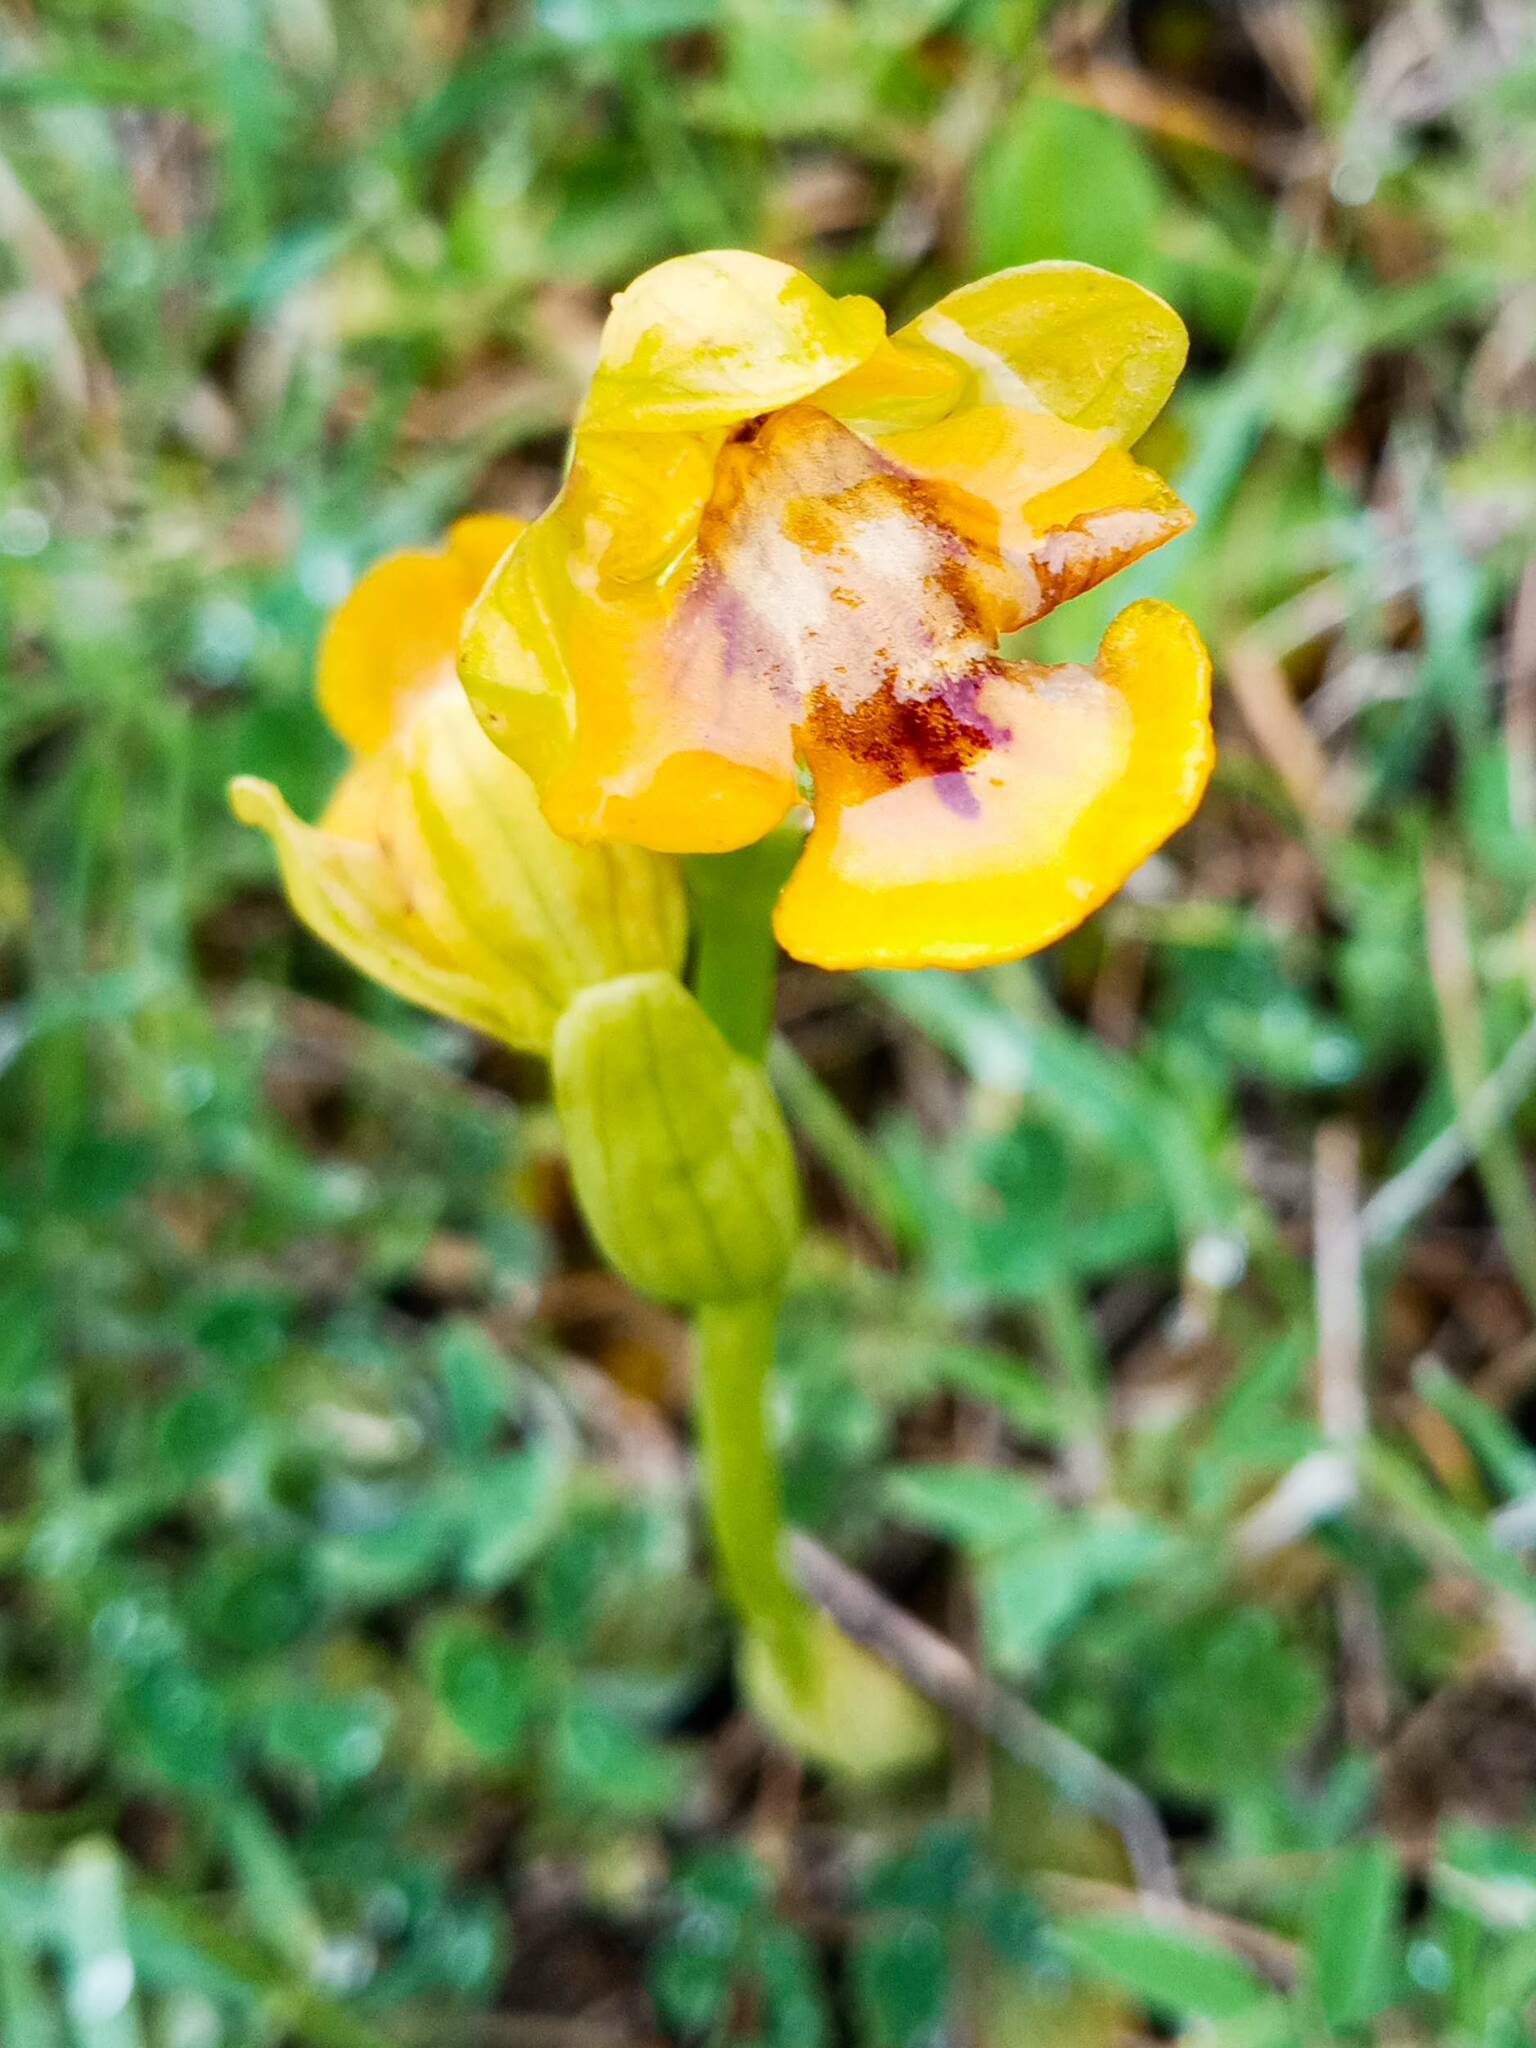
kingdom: Plantae
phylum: Tracheophyta
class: Liliopsida
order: Asparagales
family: Orchidaceae
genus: Ophrys
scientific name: Ophrys lutea
